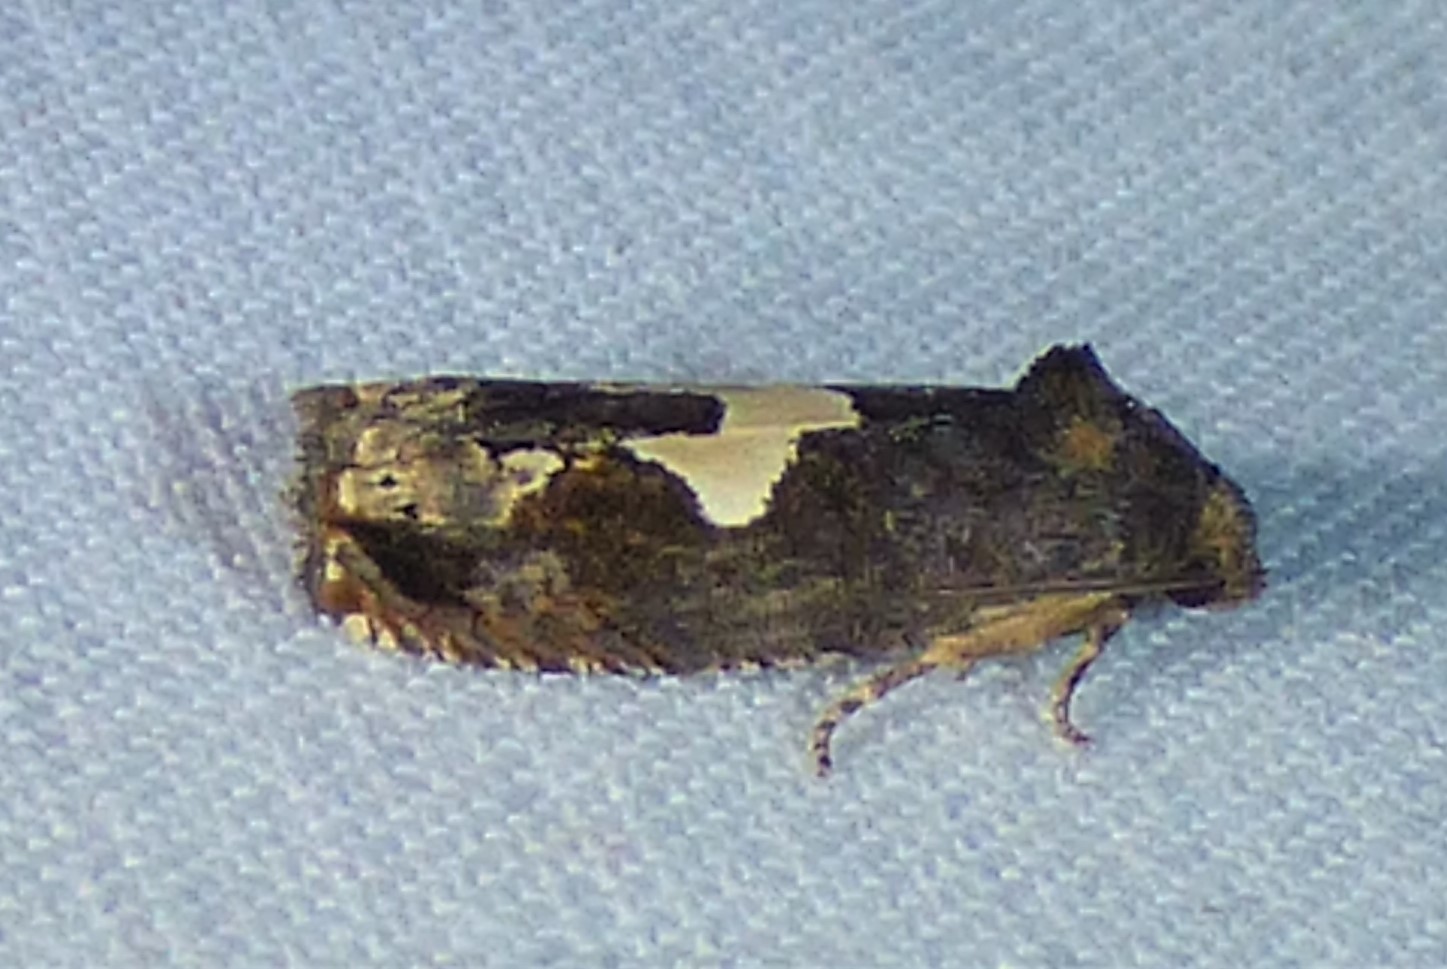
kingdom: Animalia
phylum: Arthropoda
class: Insecta
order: Lepidoptera
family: Tortricidae
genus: Epiblema
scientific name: Epiblema otiosana
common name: Bidens borer moth
